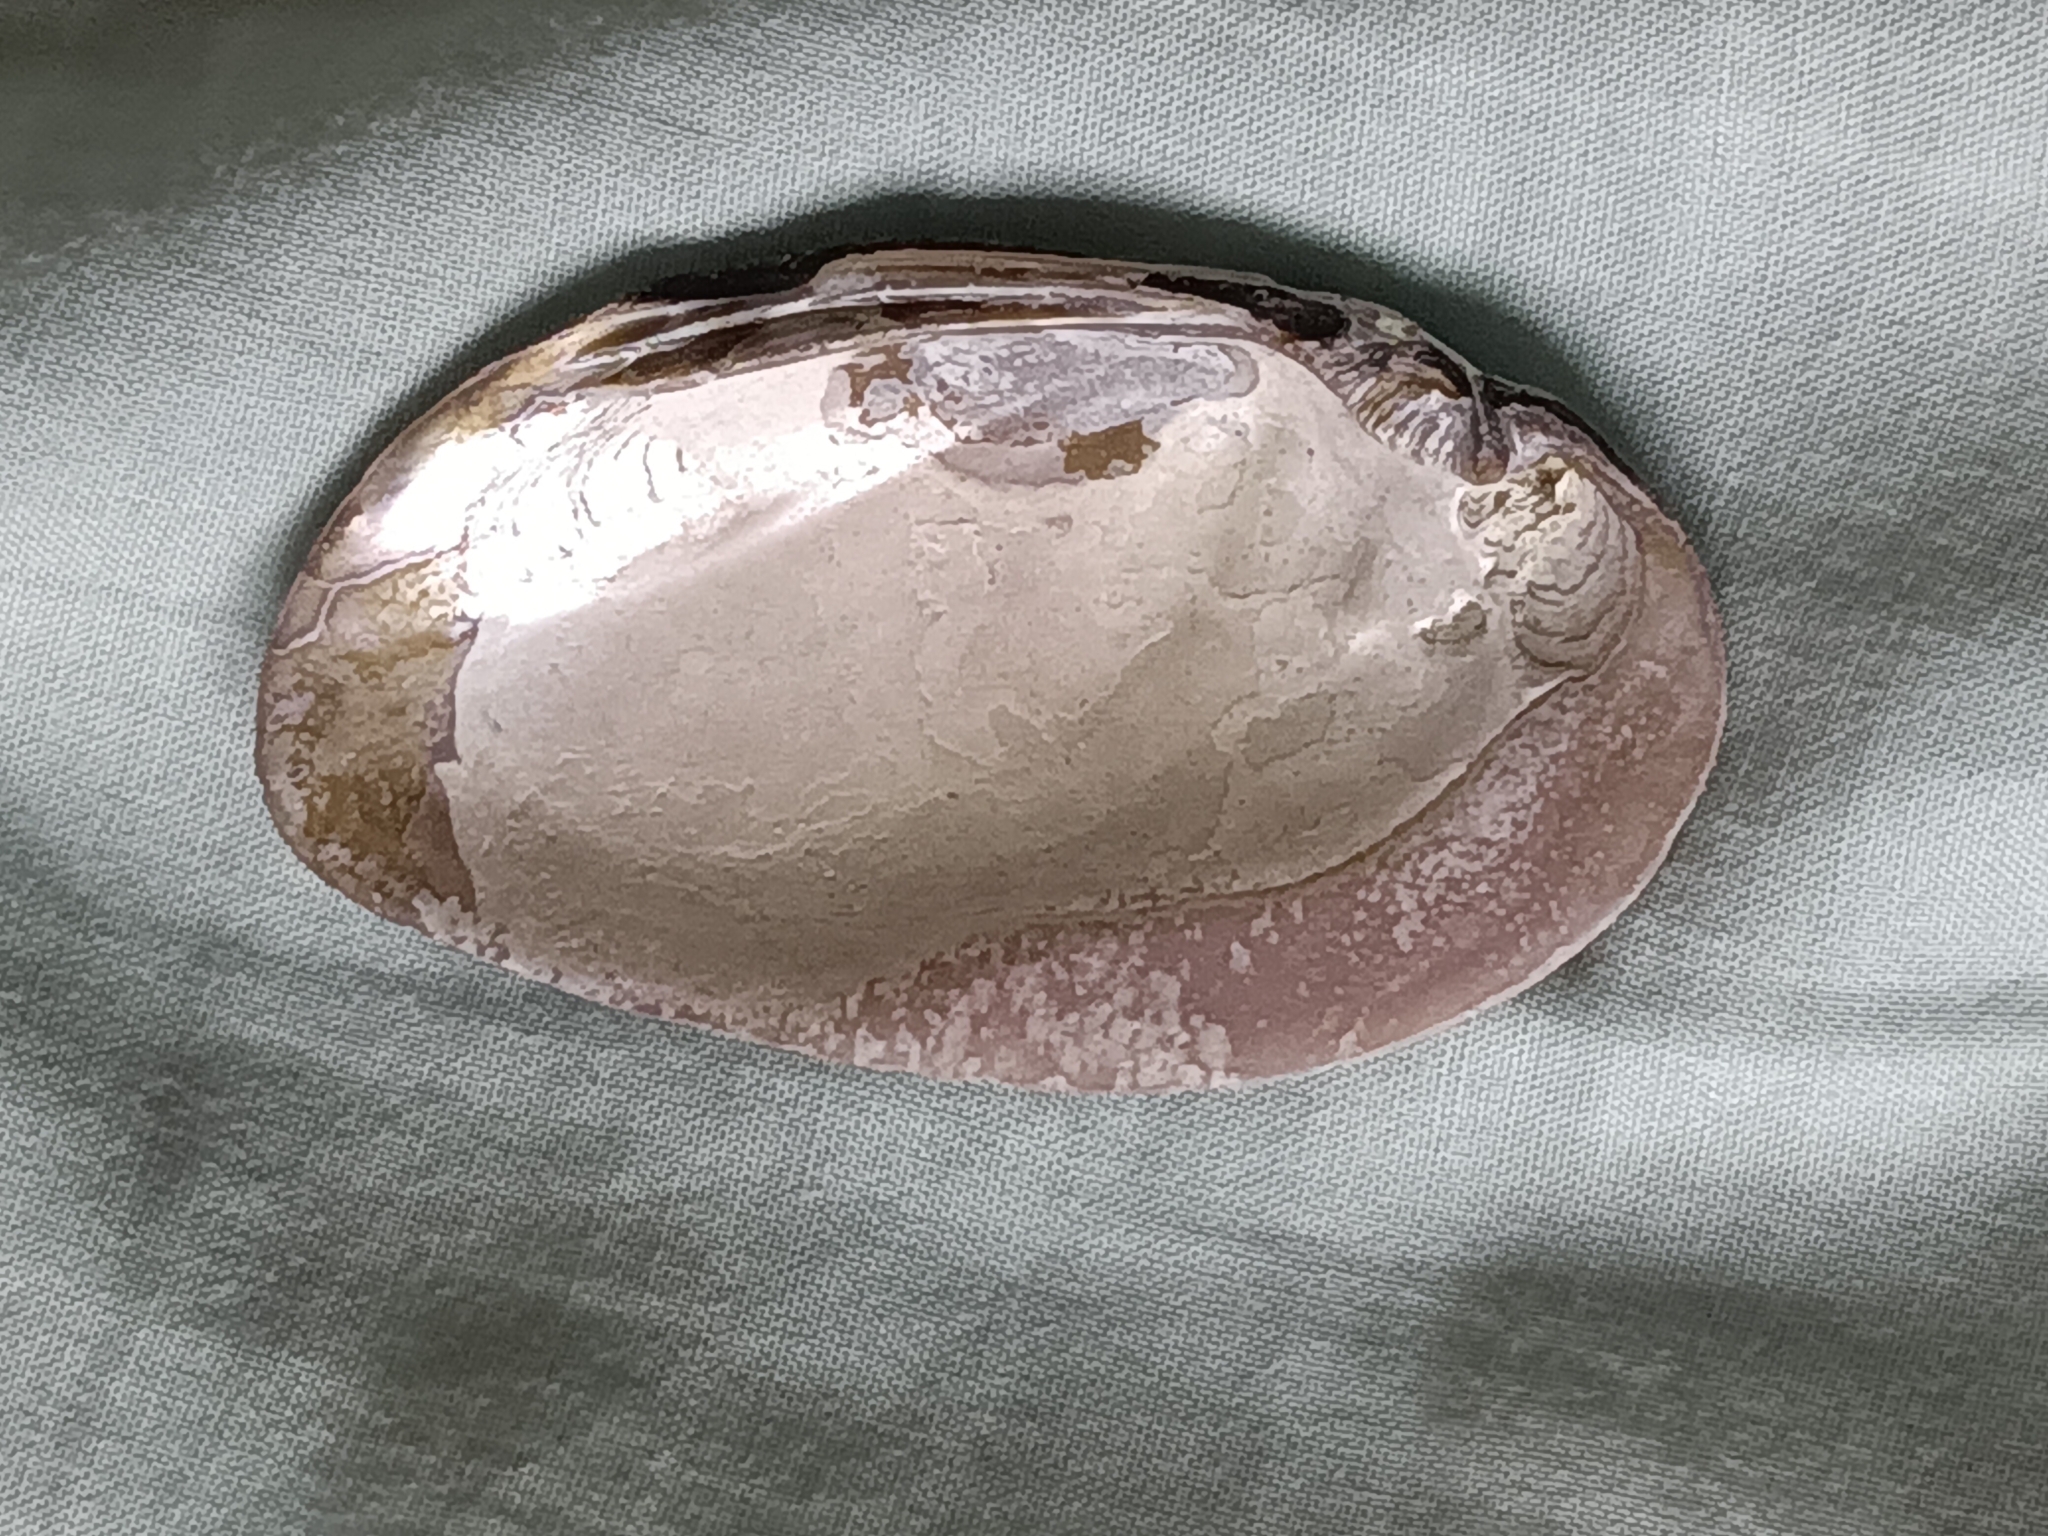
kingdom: Animalia
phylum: Mollusca
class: Bivalvia
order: Unionida
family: Unionidae
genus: Elliptio
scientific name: Elliptio complanata
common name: Eastern elliptio
